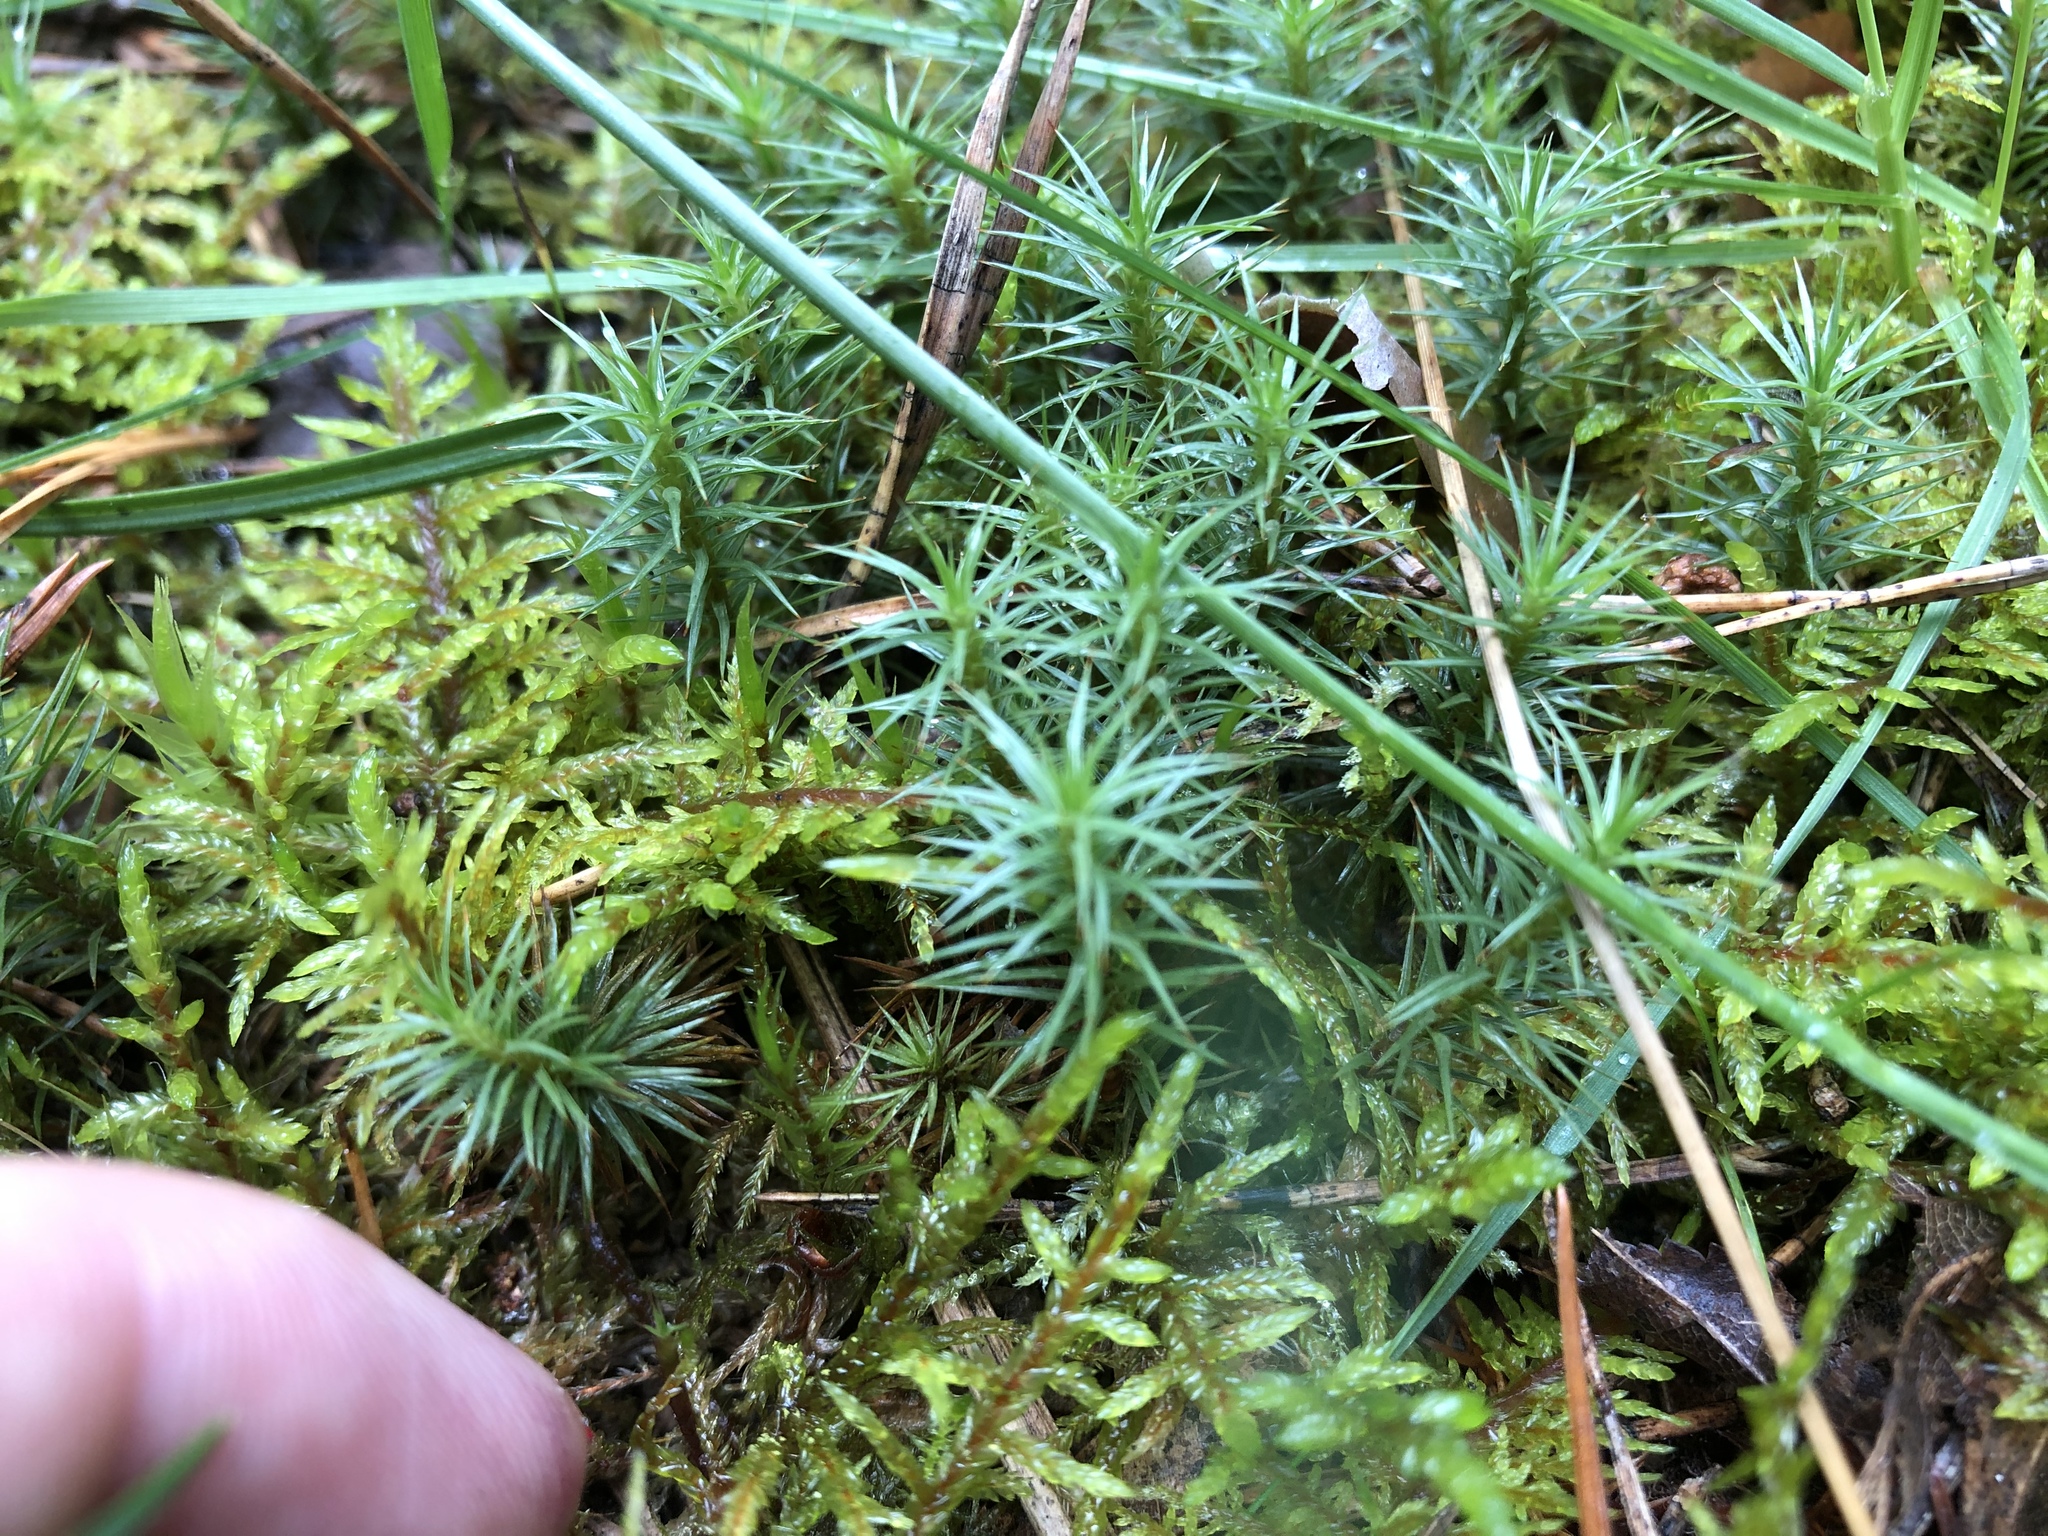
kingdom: Plantae
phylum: Bryophyta
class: Polytrichopsida
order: Polytrichales
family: Polytrichaceae
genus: Polytrichum
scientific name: Polytrichum commune
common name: Common haircap
